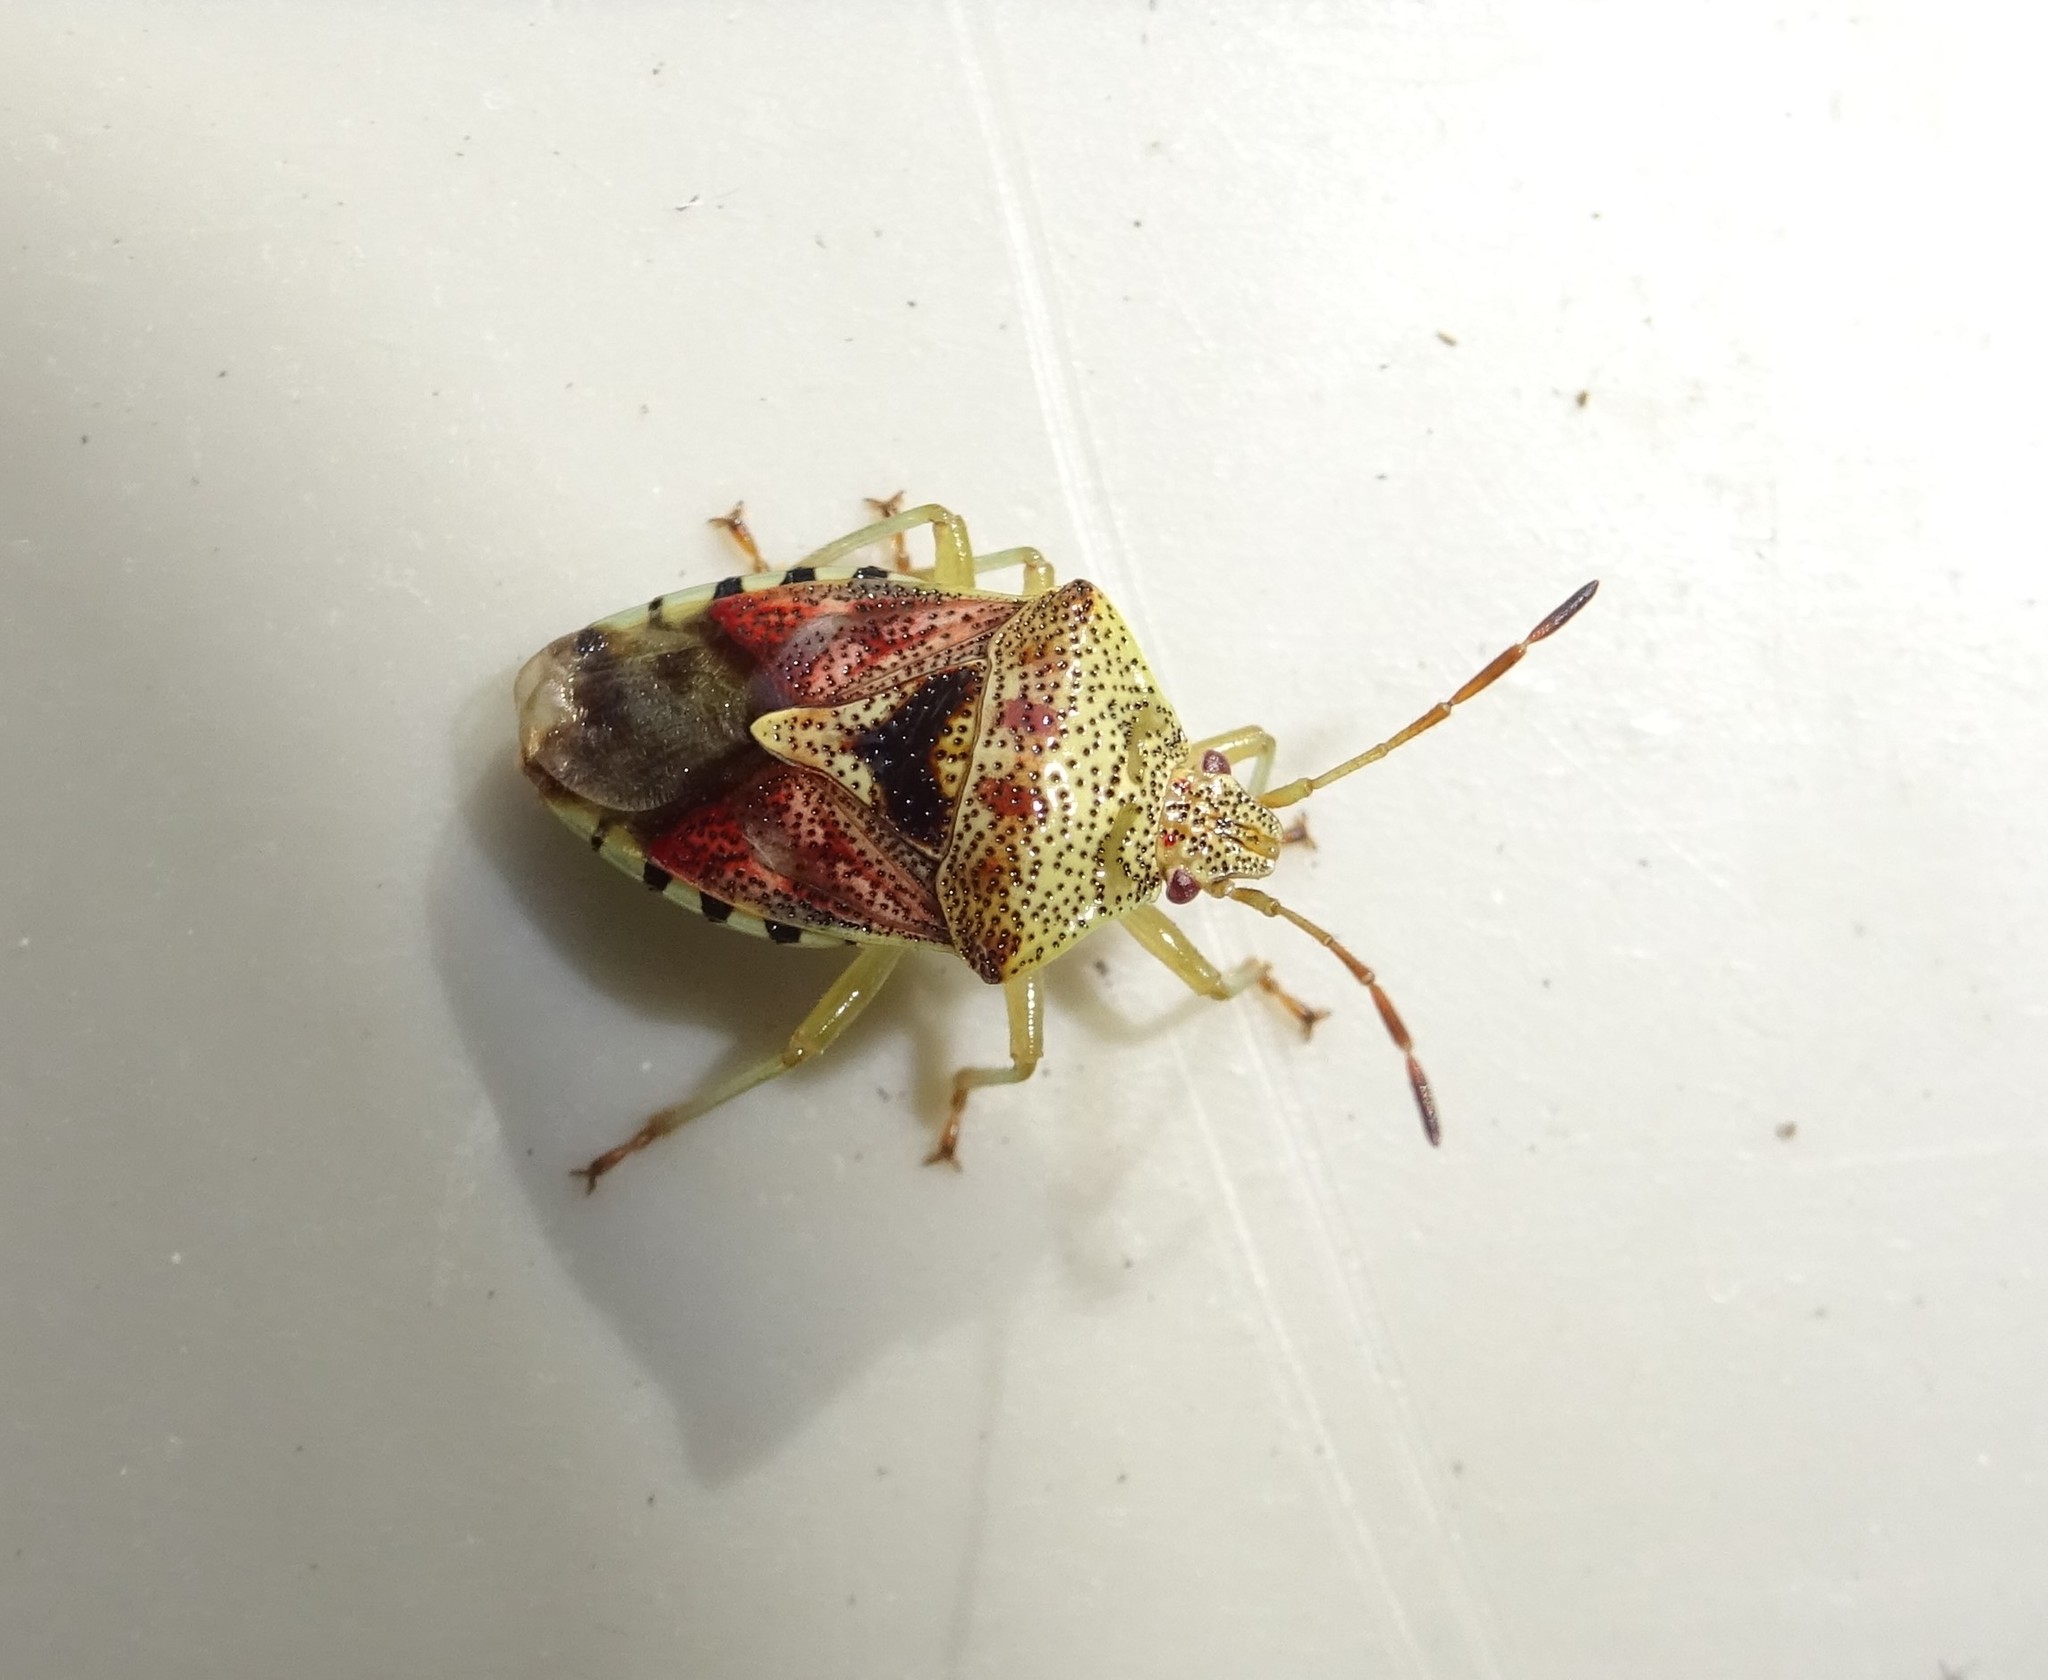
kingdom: Animalia
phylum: Arthropoda
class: Insecta
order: Hemiptera
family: Acanthosomatidae
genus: Elasmucha
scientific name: Elasmucha grisea
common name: Parent bug
